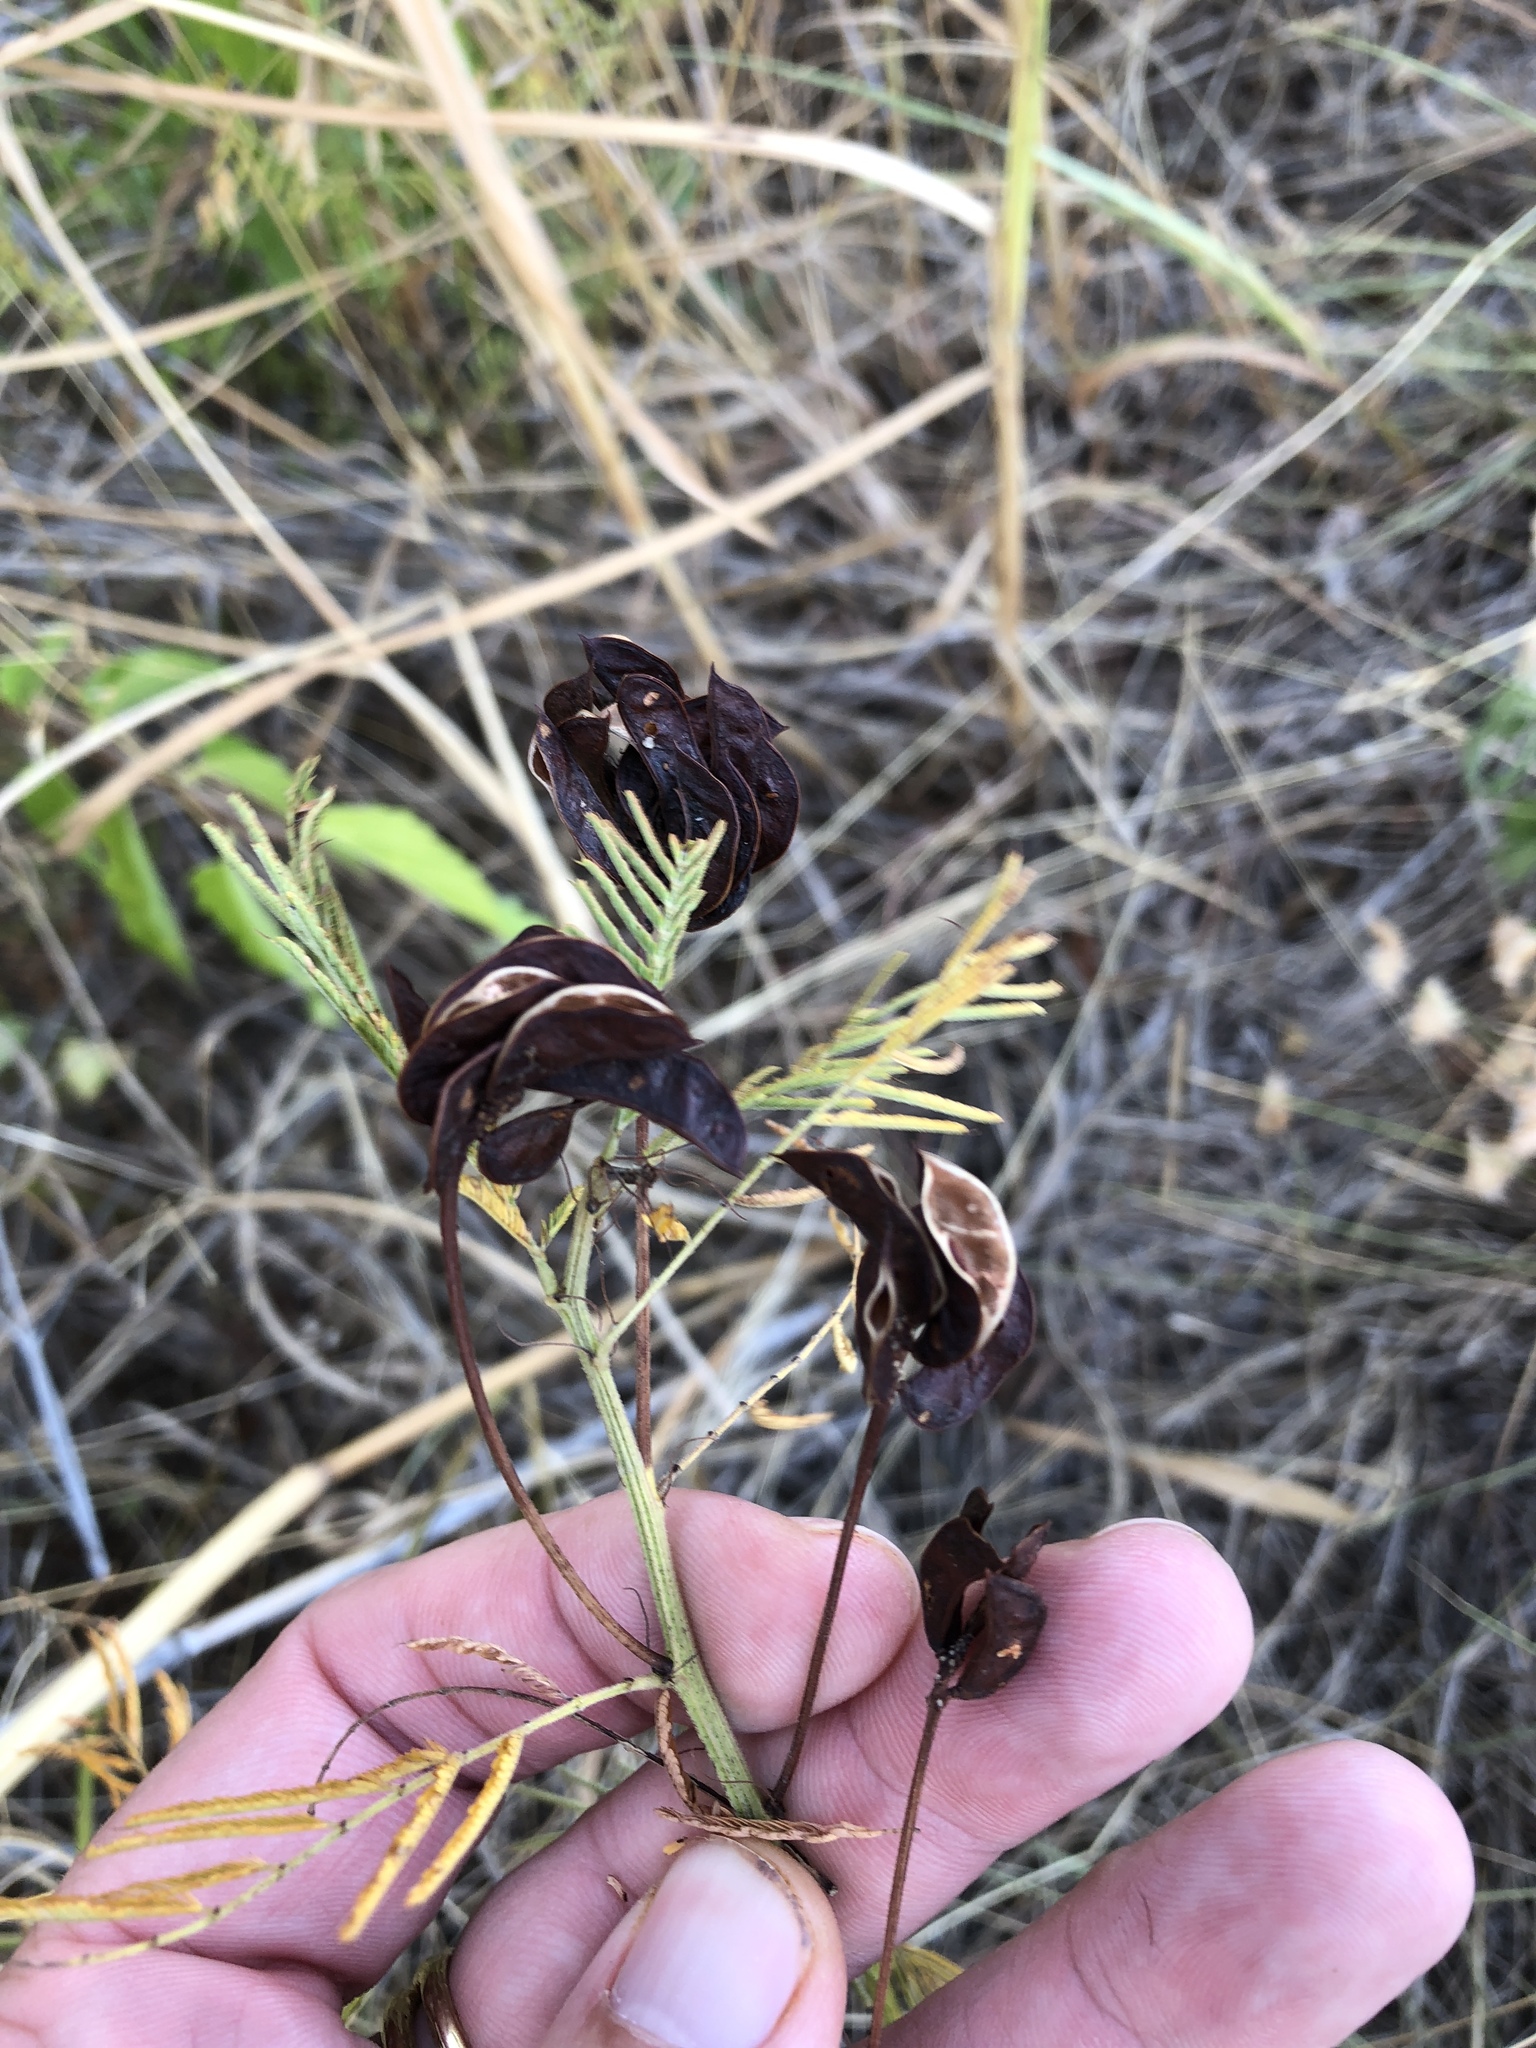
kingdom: Plantae
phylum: Tracheophyta
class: Magnoliopsida
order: Fabales
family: Fabaceae
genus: Desmanthus
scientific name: Desmanthus illinoensis
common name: Illinois bundle-flower
